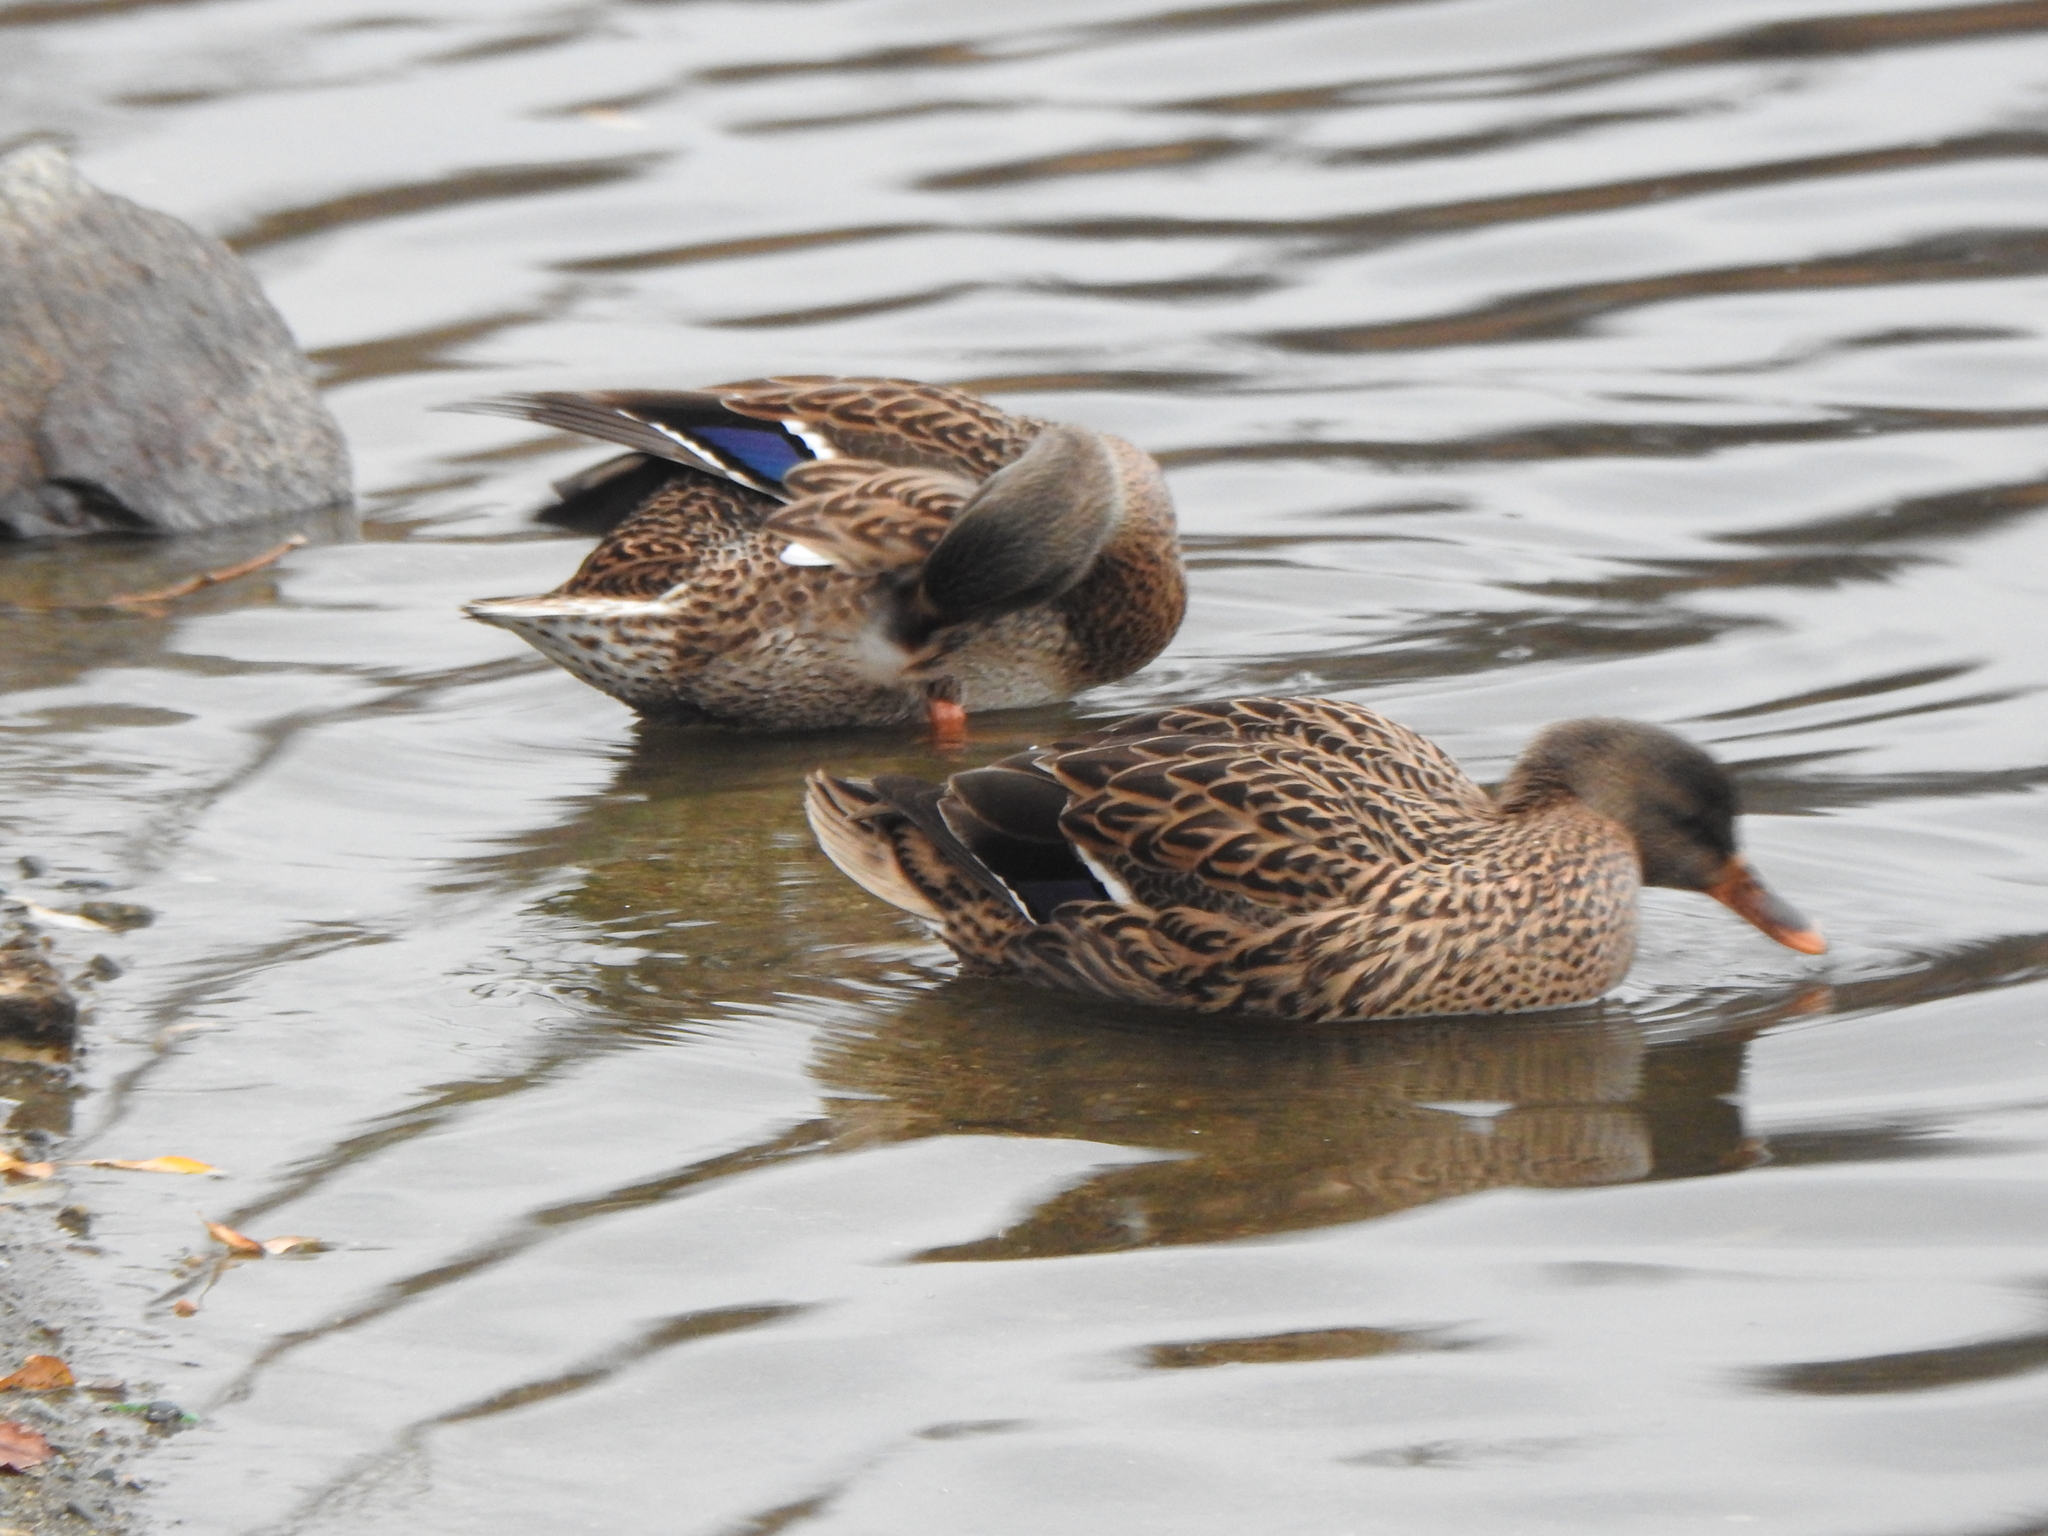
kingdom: Animalia
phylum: Chordata
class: Aves
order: Anseriformes
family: Anatidae
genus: Anas
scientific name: Anas platyrhynchos
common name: Mallard
